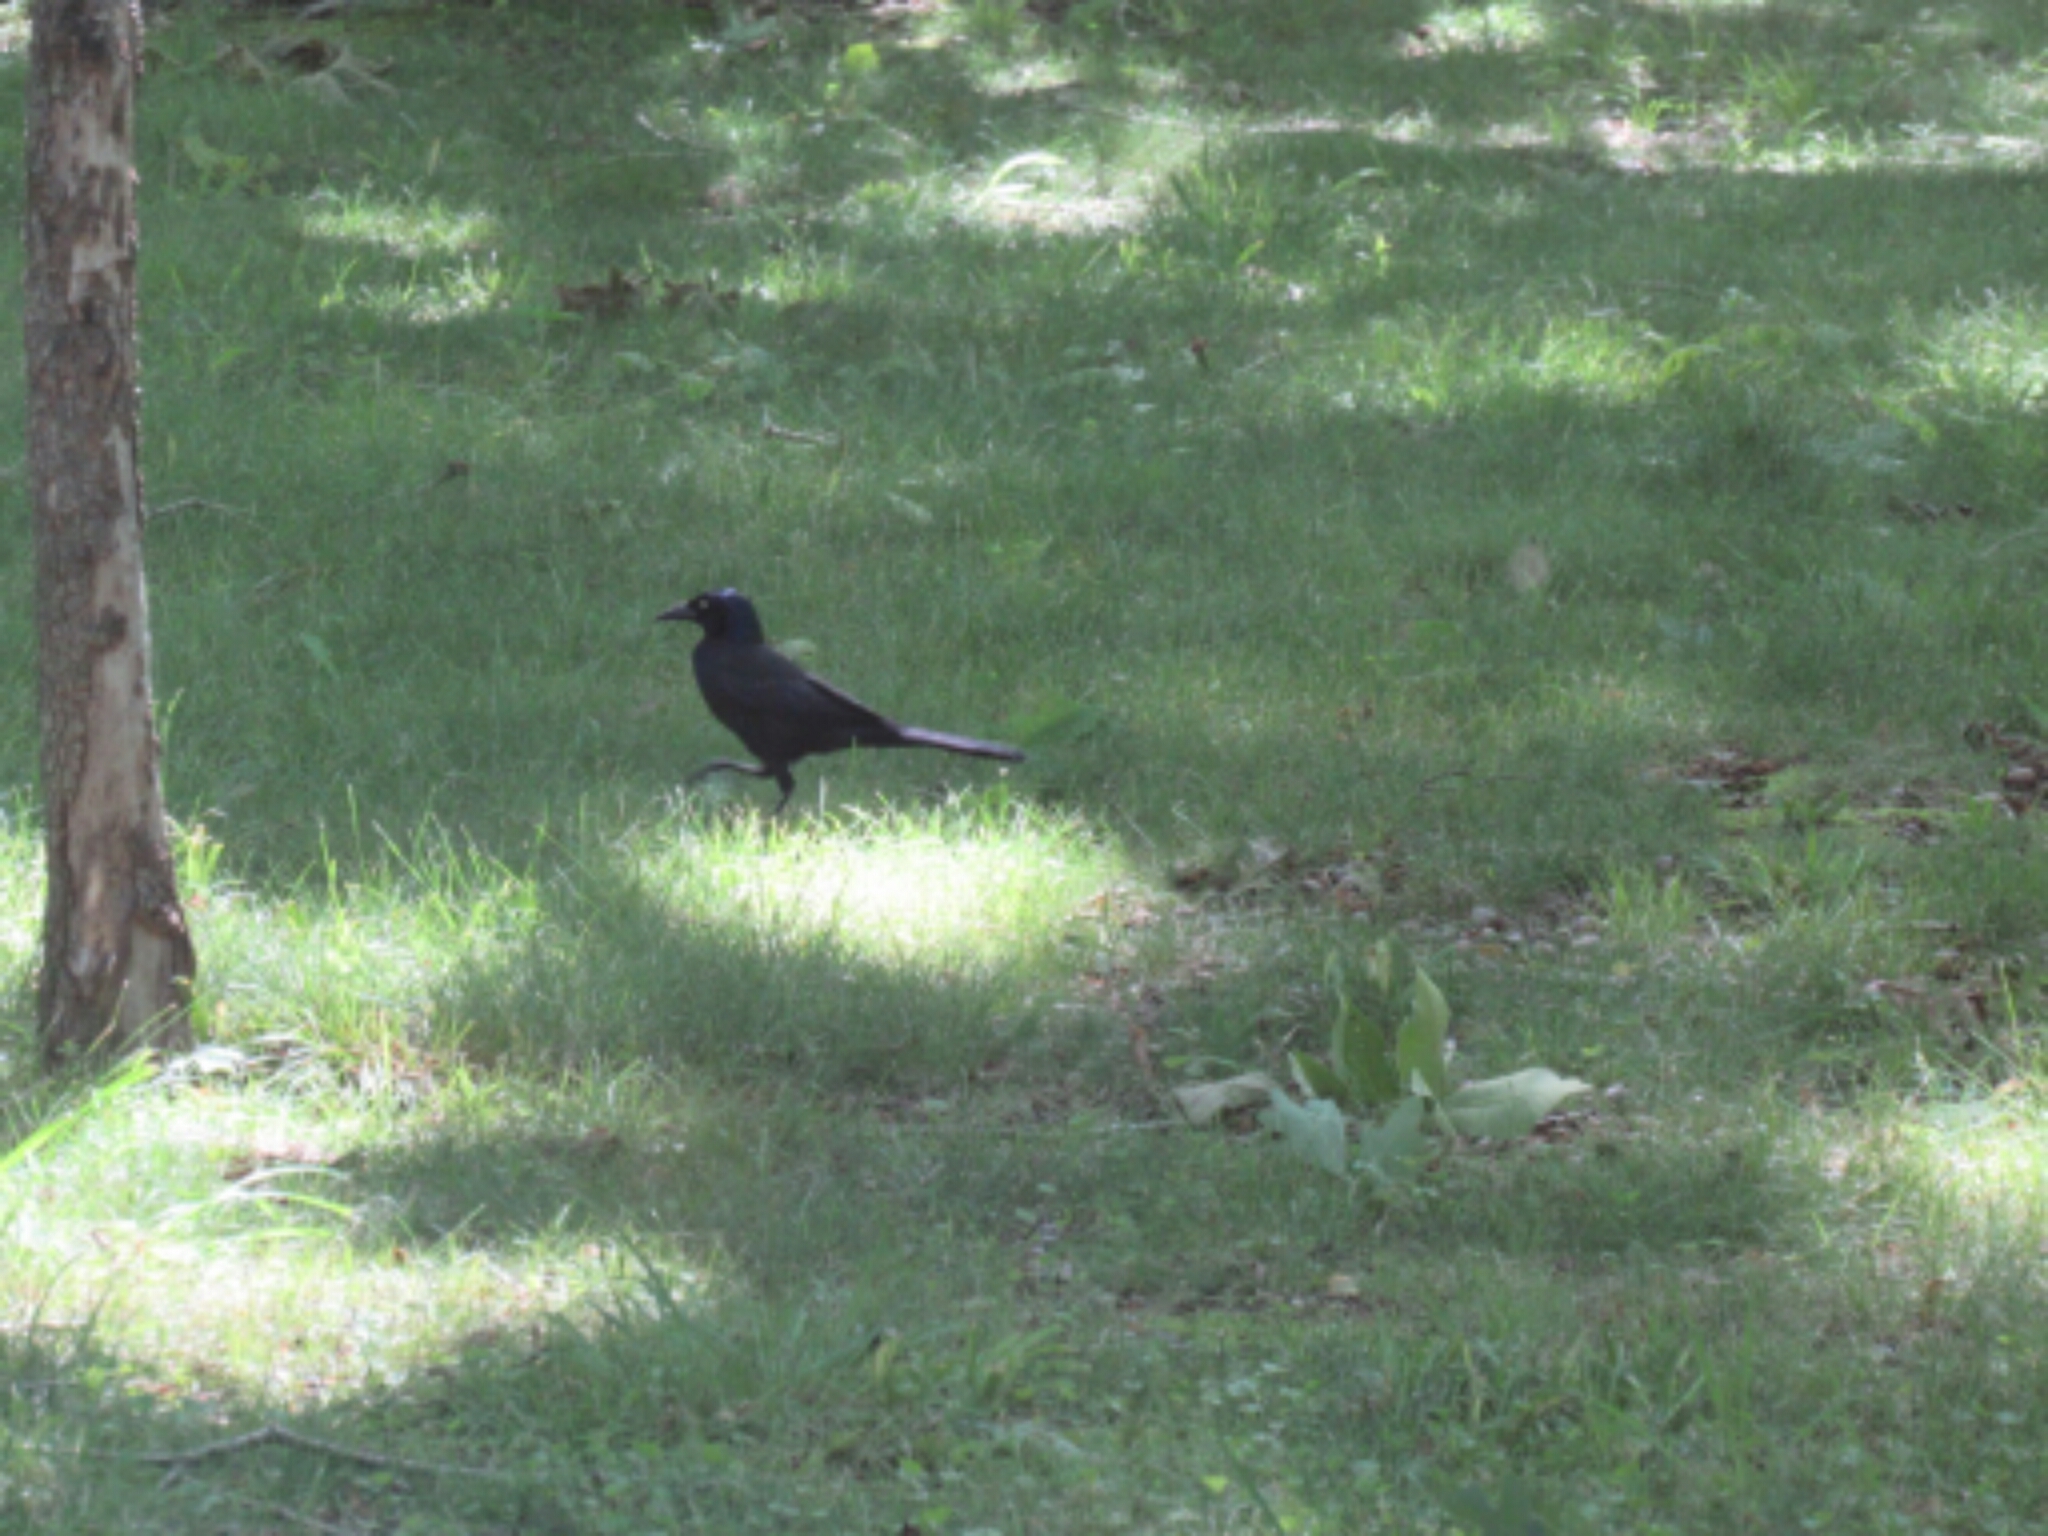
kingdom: Animalia
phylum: Chordata
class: Aves
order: Passeriformes
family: Icteridae
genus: Quiscalus
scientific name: Quiscalus quiscula
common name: Common grackle
